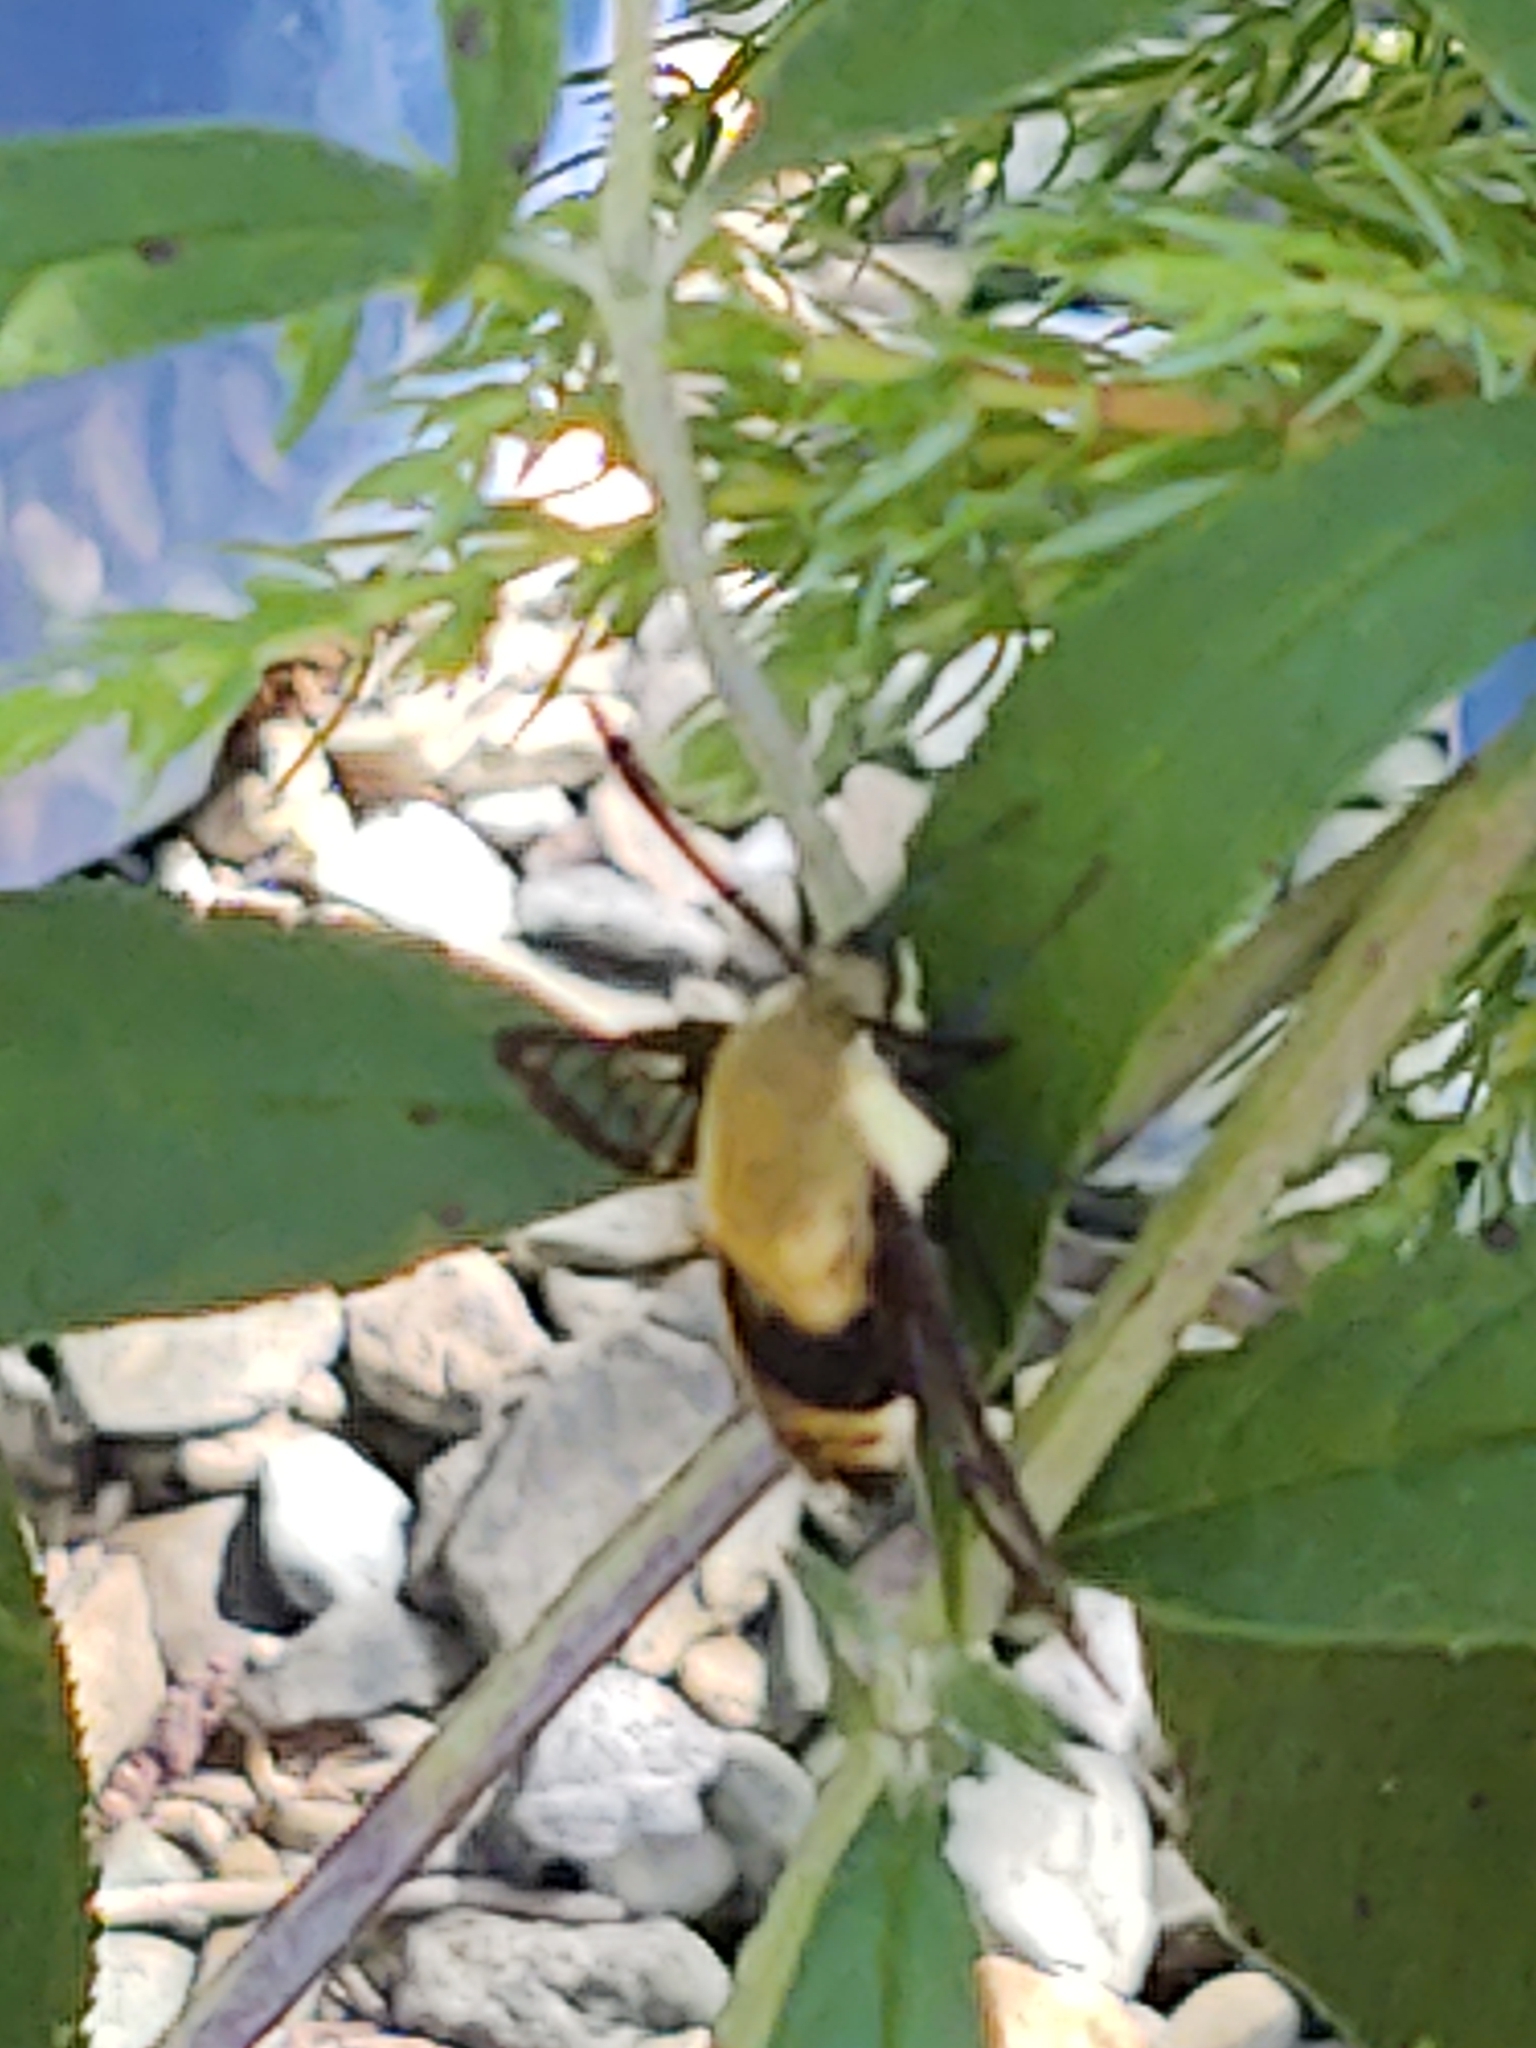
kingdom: Animalia
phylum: Arthropoda
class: Insecta
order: Lepidoptera
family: Sphingidae
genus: Hemaris
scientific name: Hemaris diffinis
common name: Bumblebee moth
